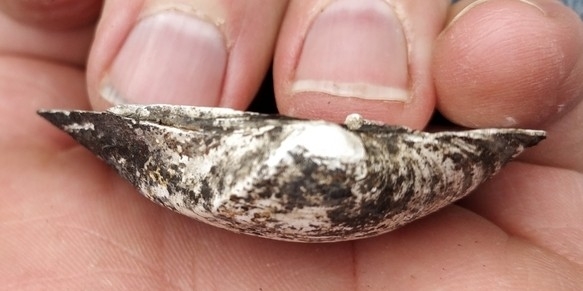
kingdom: Animalia
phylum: Mollusca
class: Bivalvia
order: Unionida
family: Unionidae
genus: Truncilla
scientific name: Truncilla truncata
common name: Deertoe
